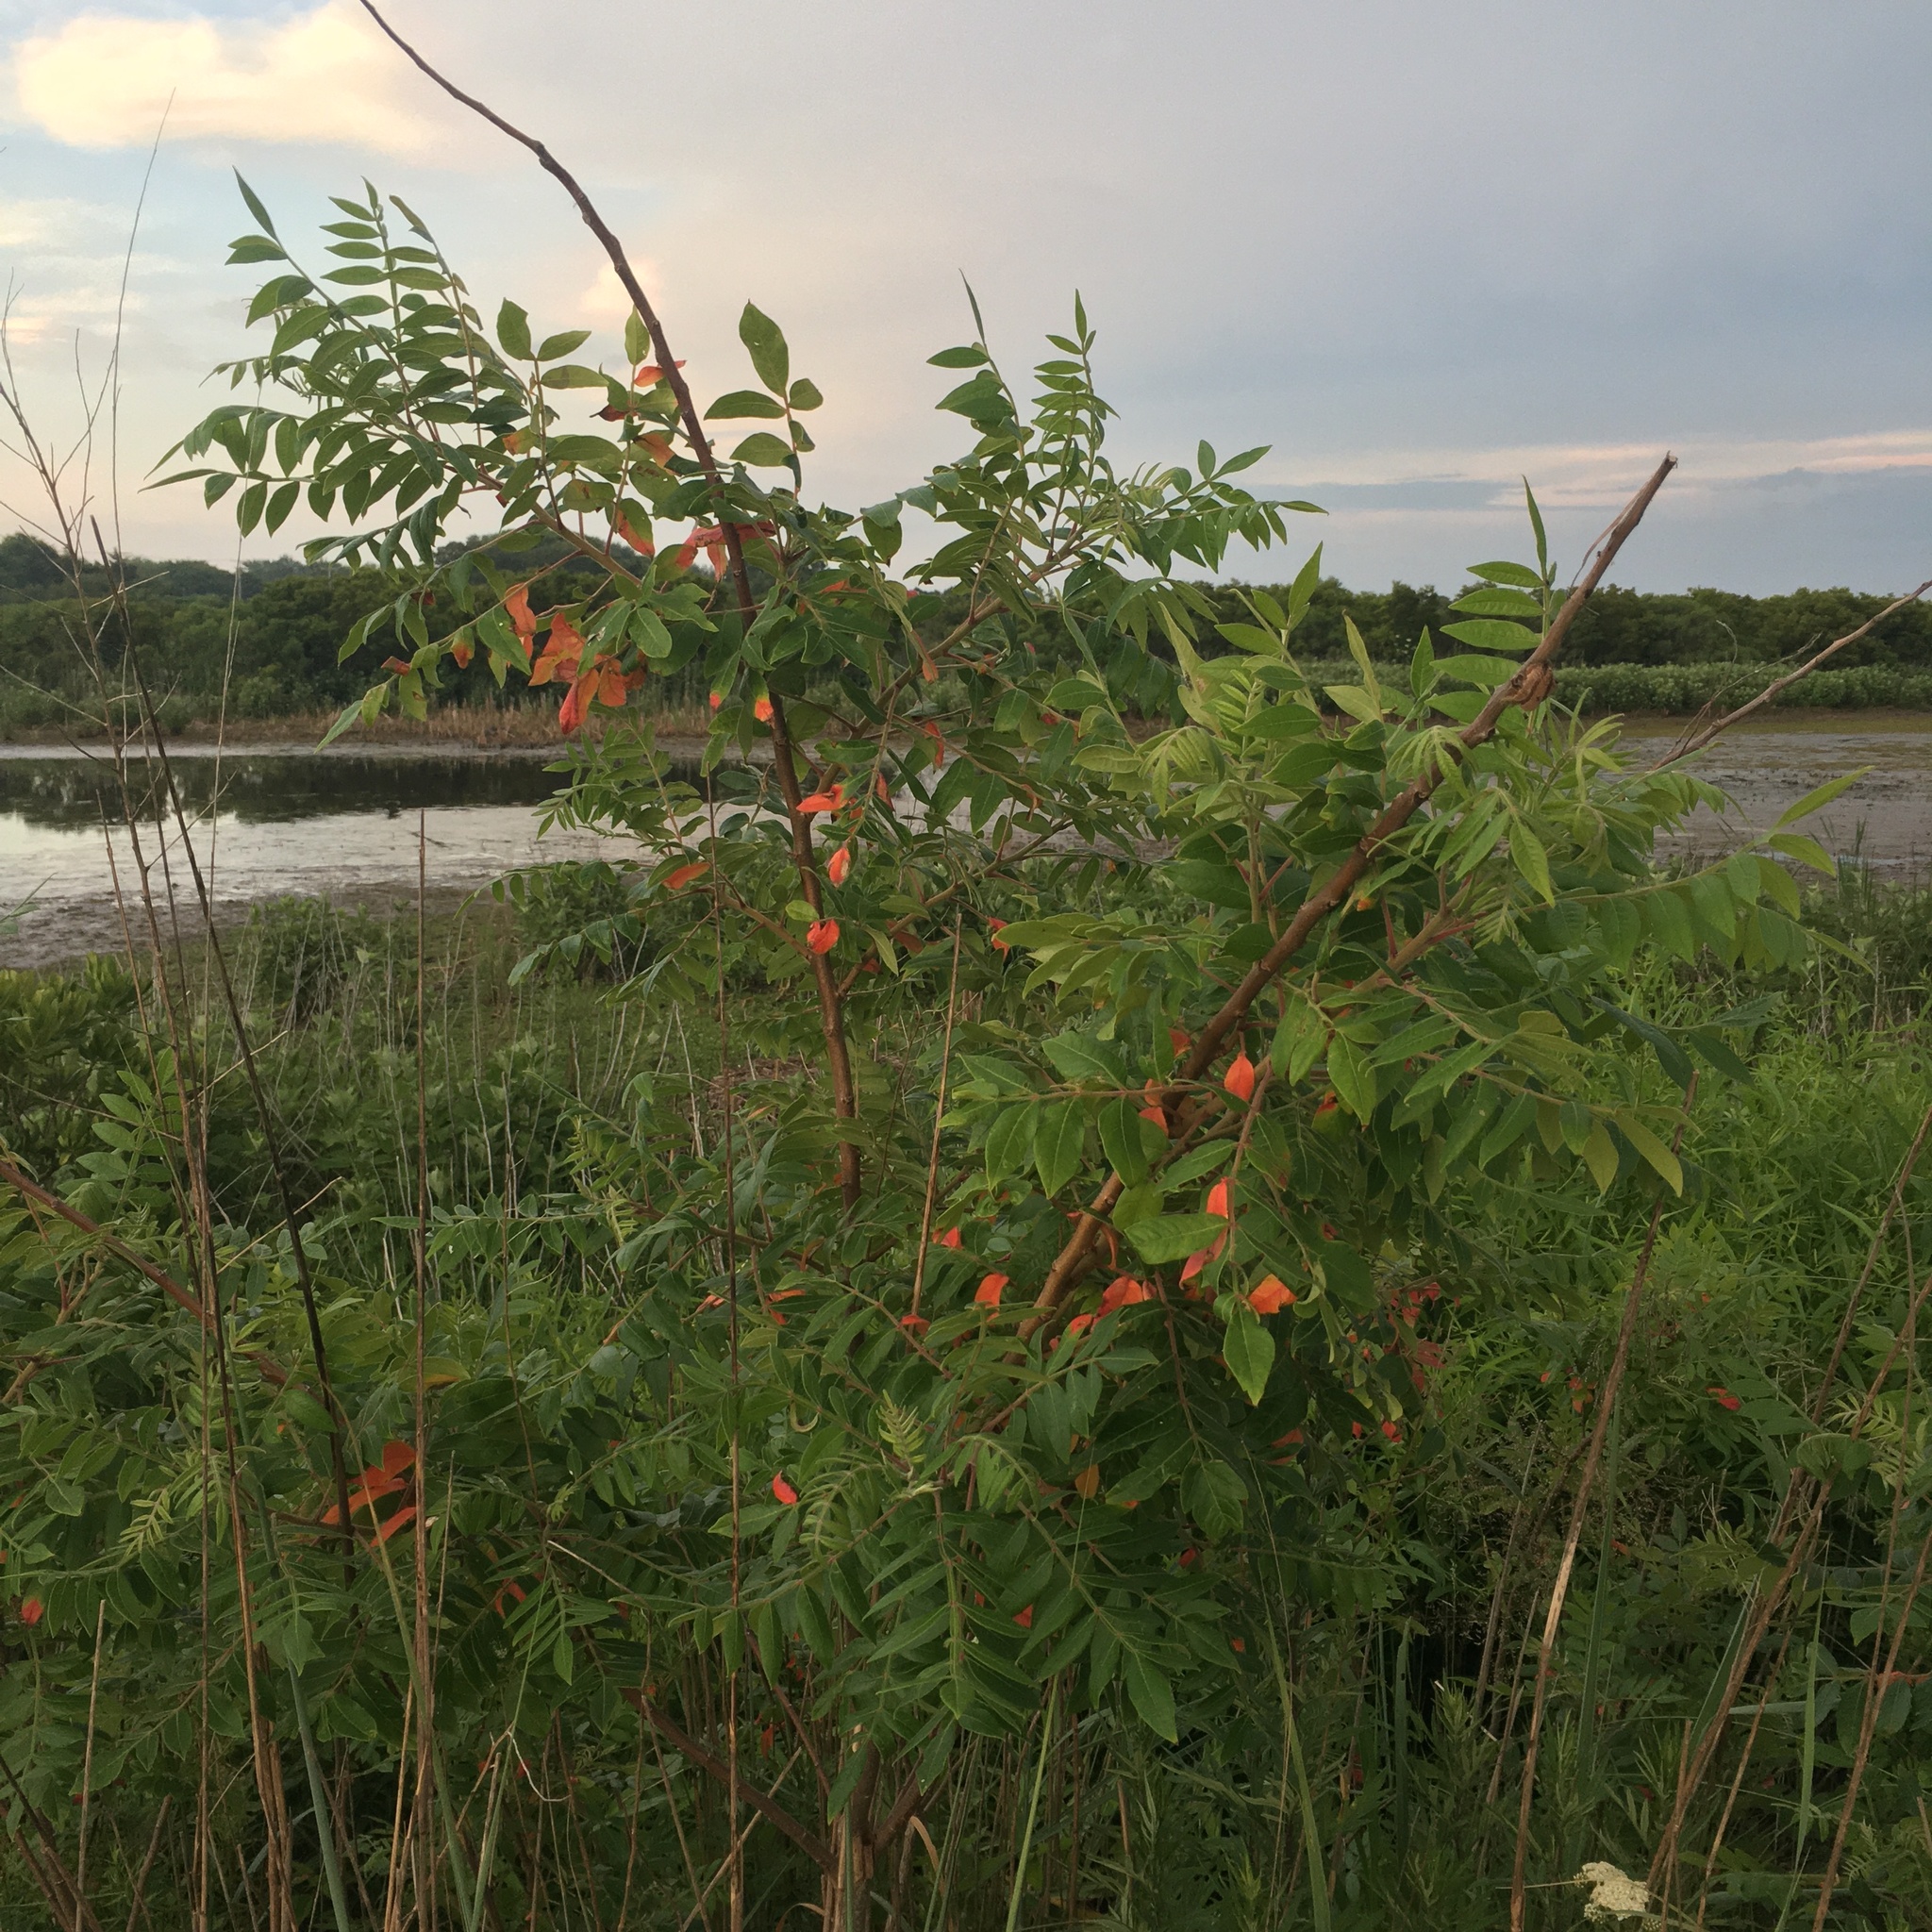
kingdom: Plantae
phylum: Tracheophyta
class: Magnoliopsida
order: Sapindales
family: Anacardiaceae
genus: Rhus
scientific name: Rhus copallina
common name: Shining sumac
